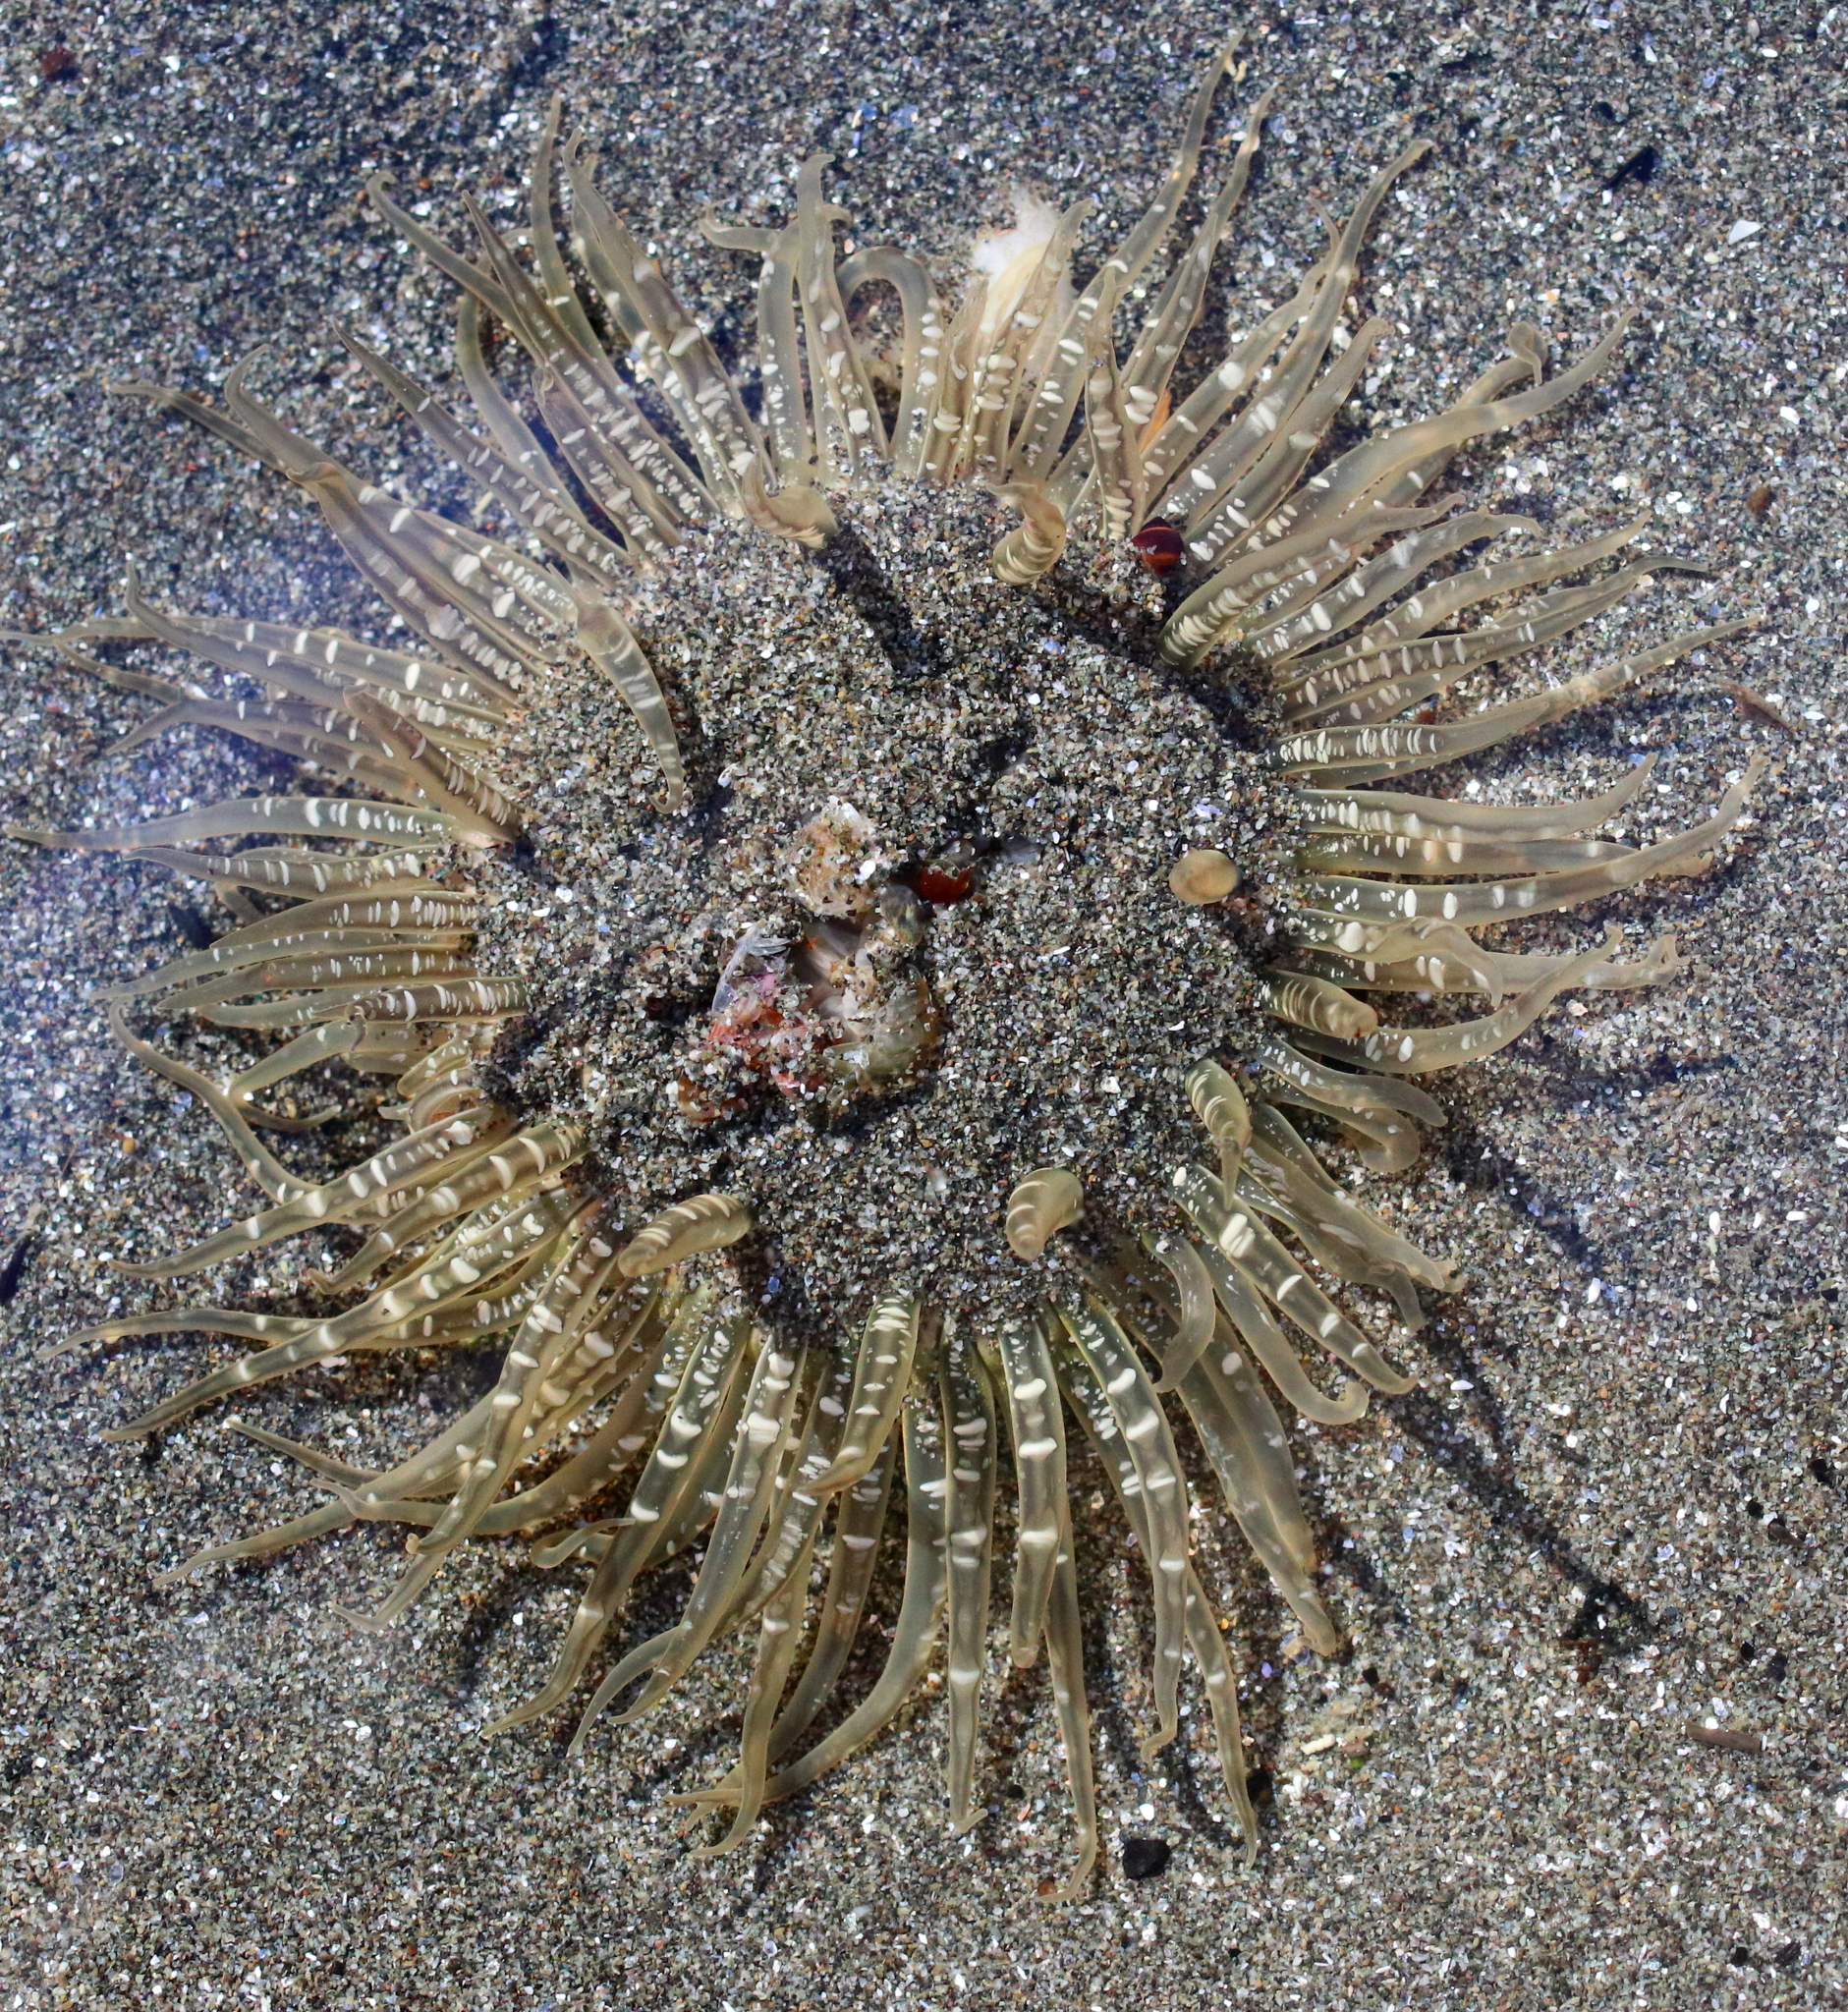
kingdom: Animalia
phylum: Cnidaria
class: Anthozoa
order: Actiniaria
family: Actiniidae
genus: Anthopleura
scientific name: Anthopleura artemisia
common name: Buried sea anemone
